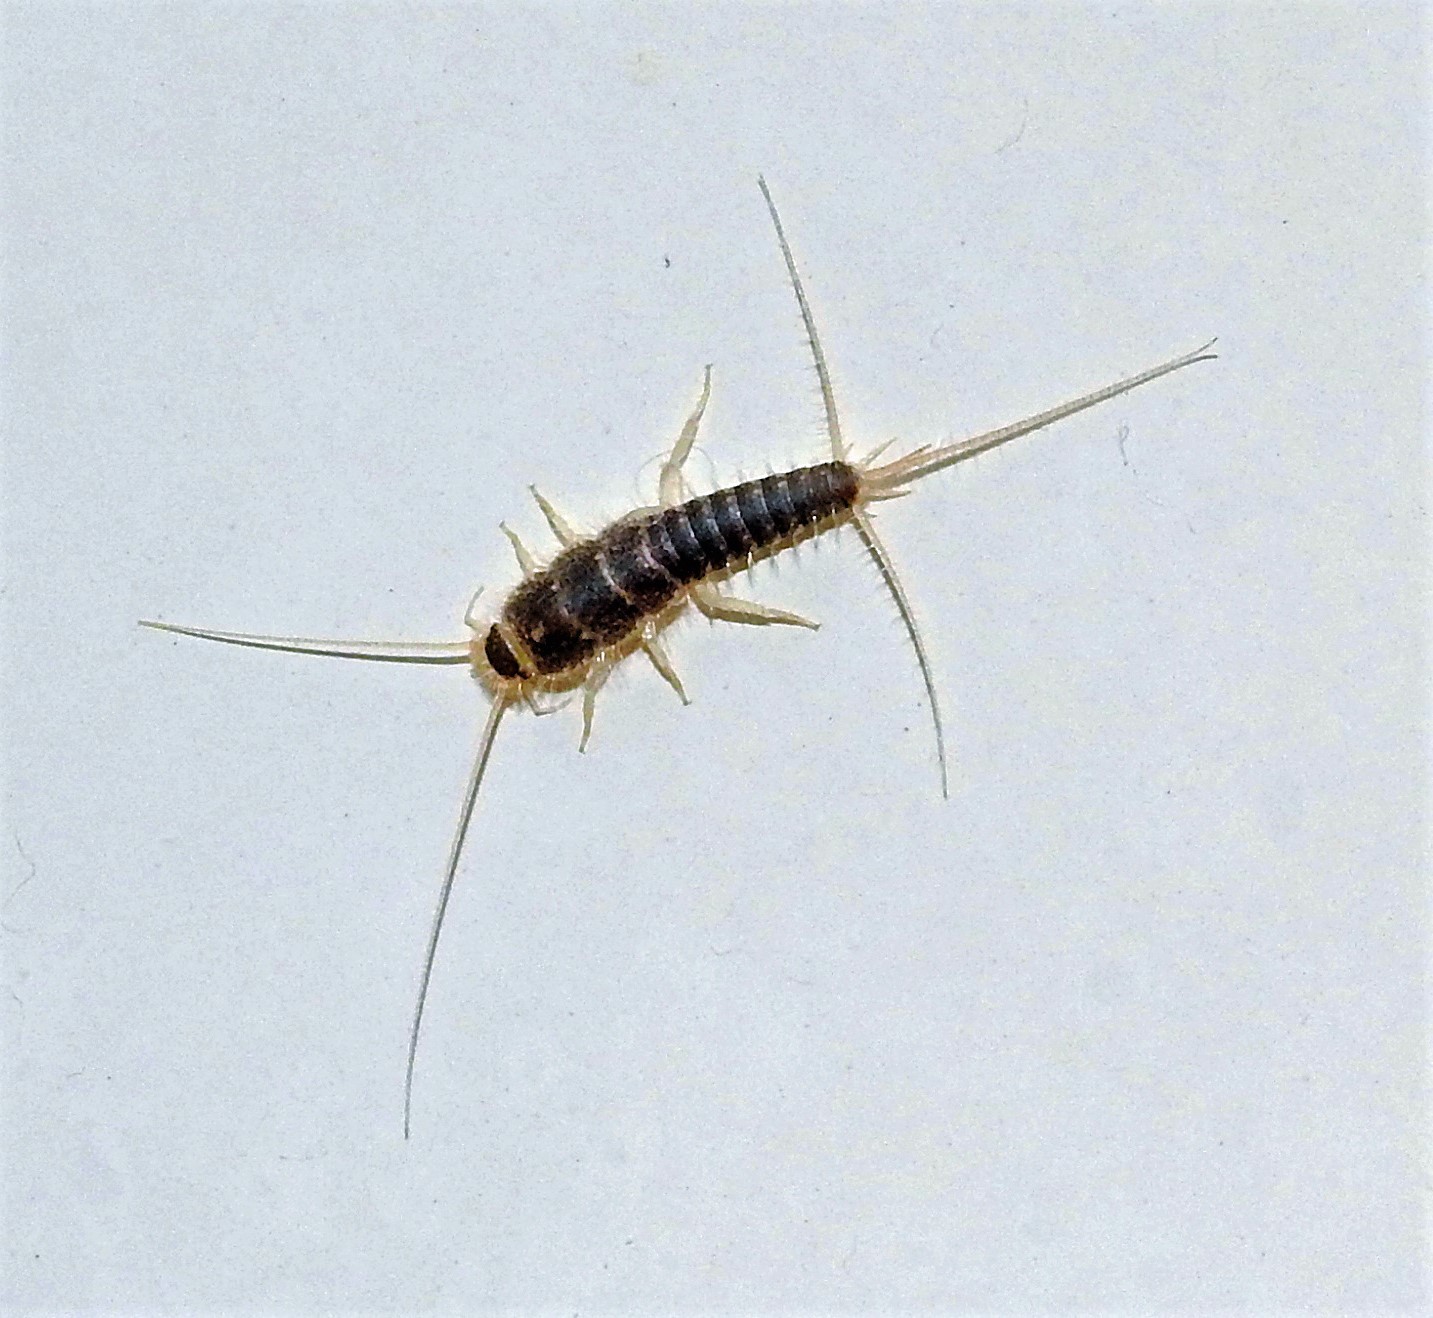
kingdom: Animalia
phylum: Arthropoda
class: Insecta
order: Zygentoma
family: Lepismatidae
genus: Ctenolepisma
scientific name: Ctenolepisma longicaudatum
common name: Silverfish
